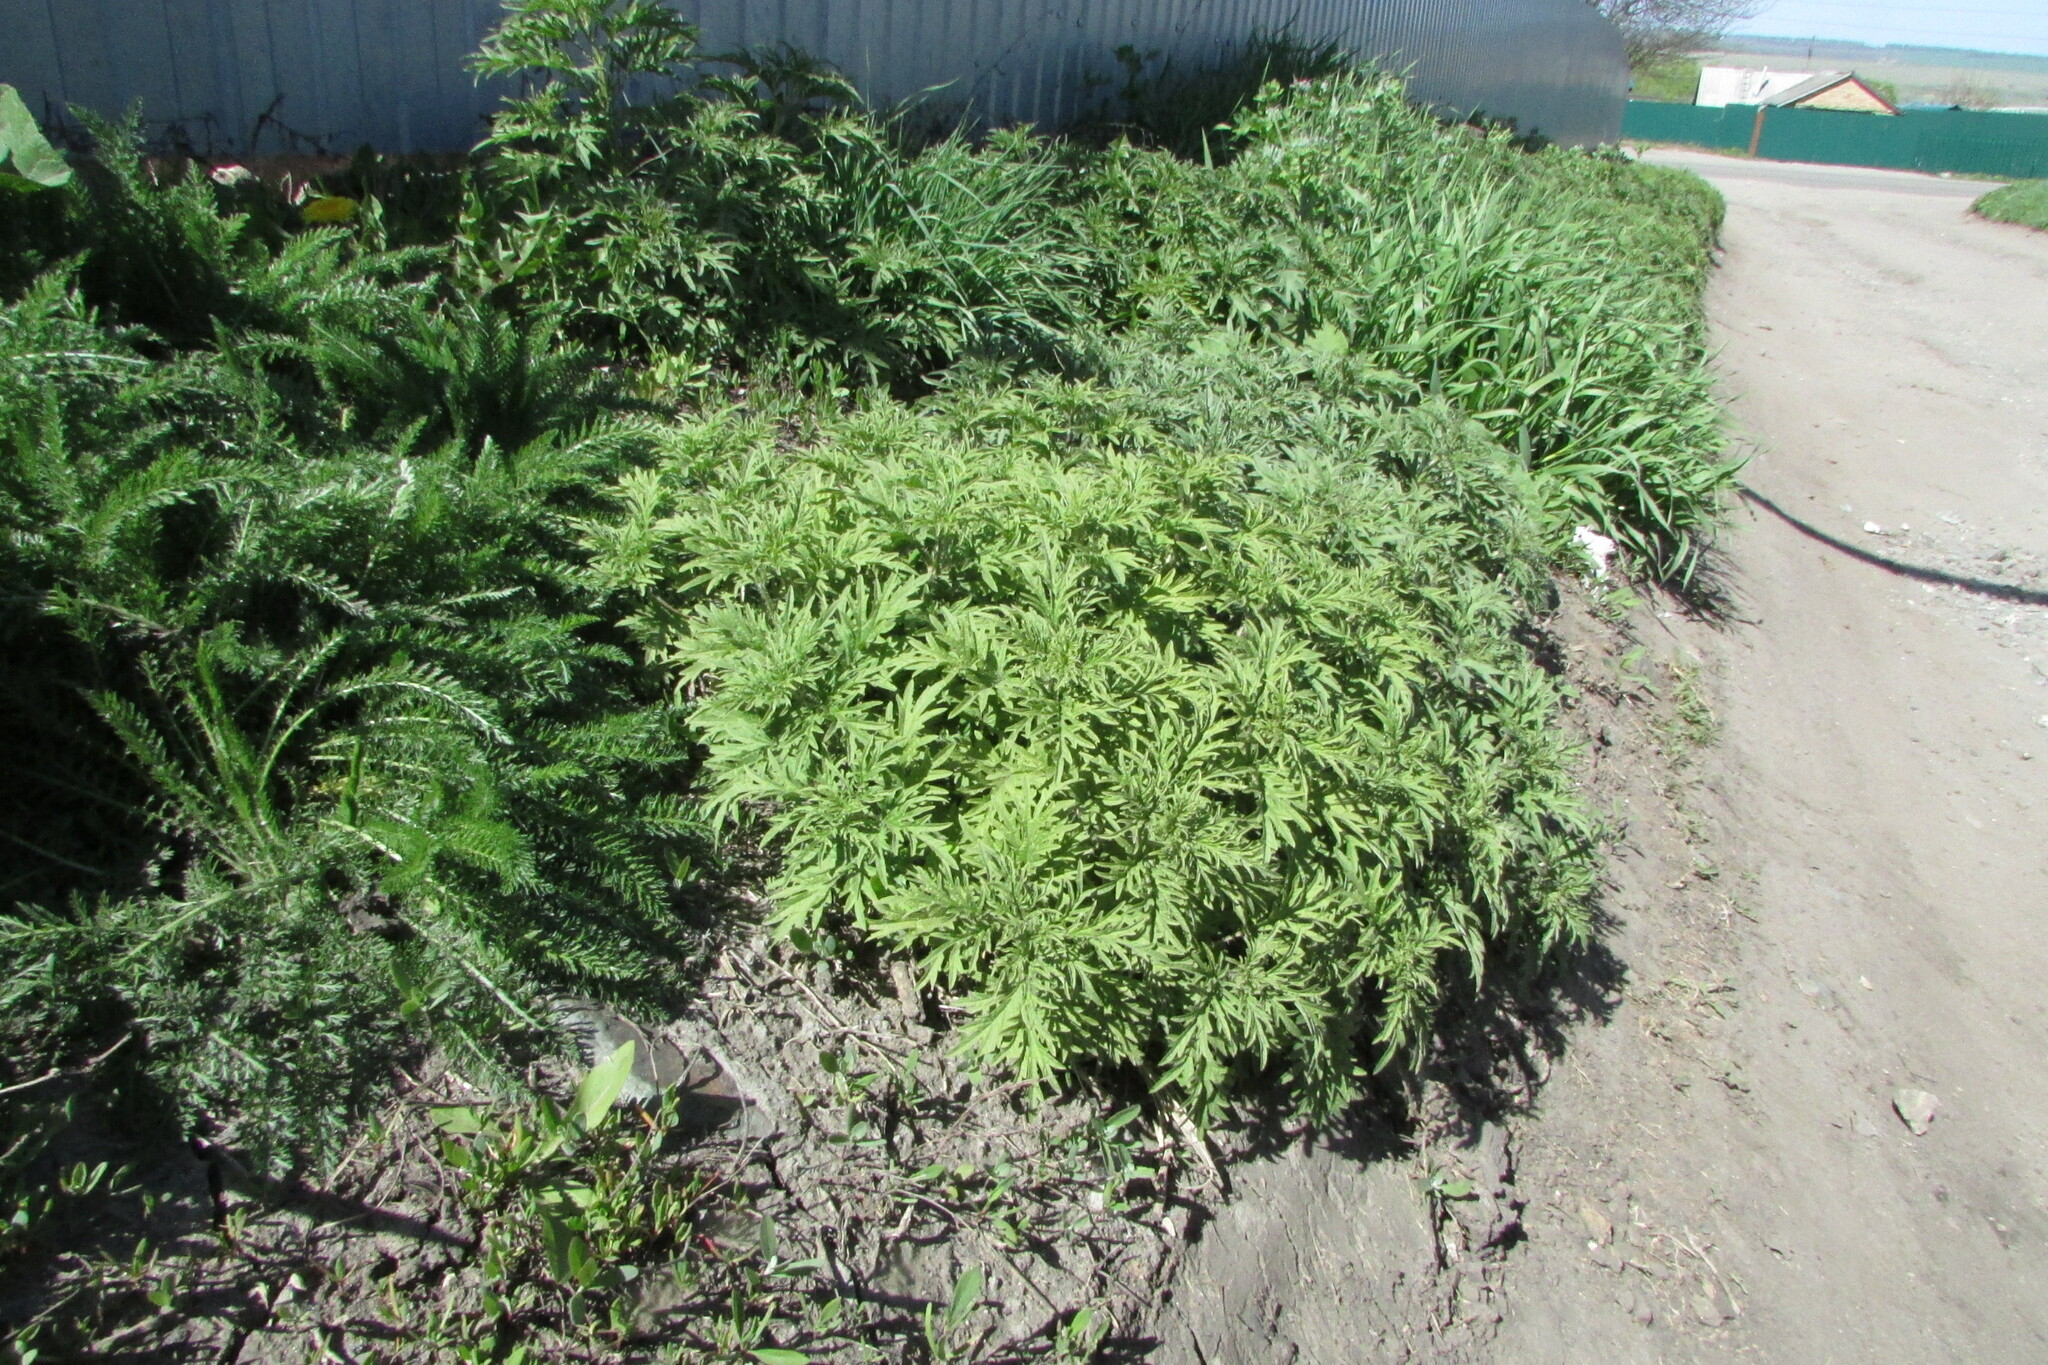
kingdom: Plantae
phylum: Tracheophyta
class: Magnoliopsida
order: Rosales
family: Urticaceae
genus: Urtica
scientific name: Urtica cannabina
